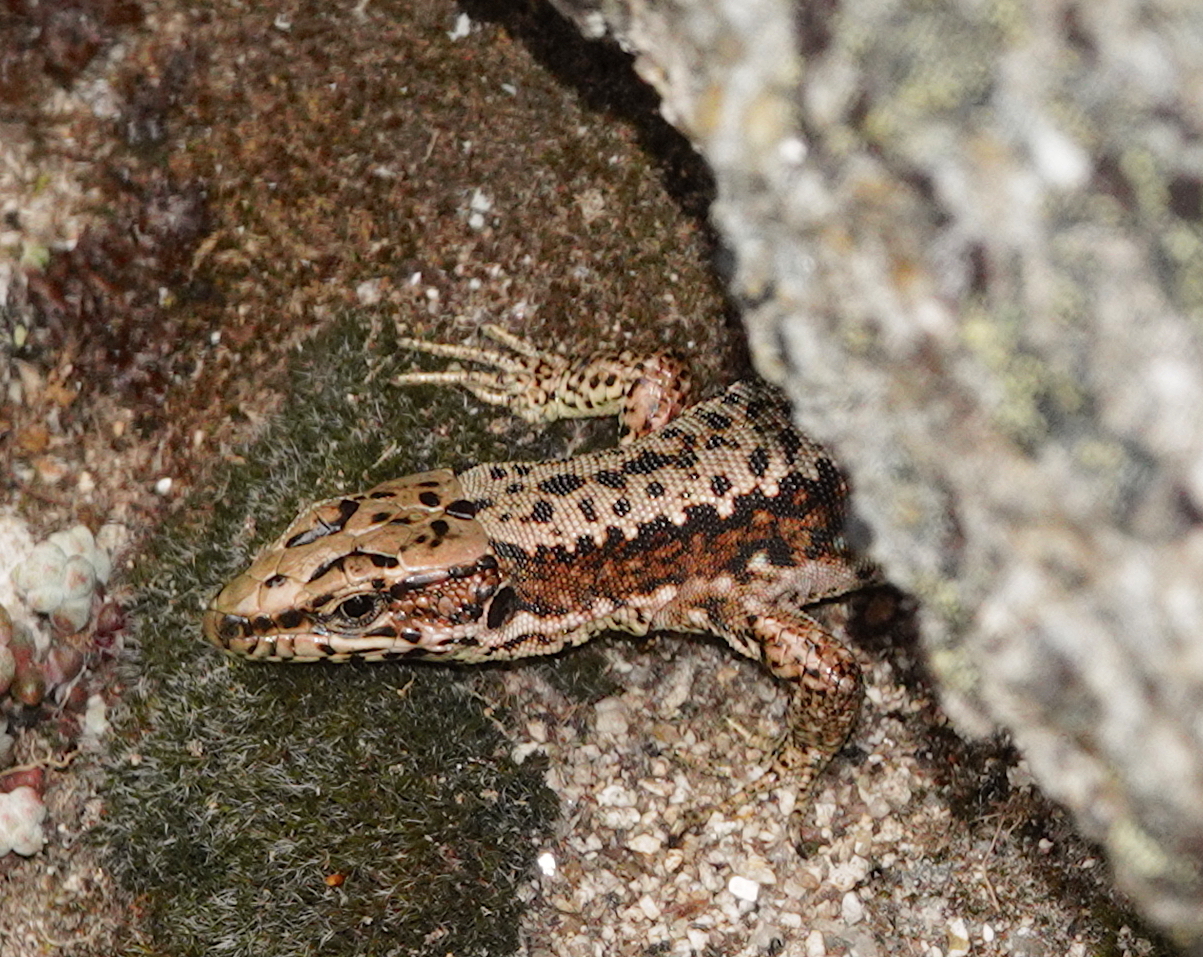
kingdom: Animalia
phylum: Chordata
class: Squamata
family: Lacertidae
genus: Iberolacerta
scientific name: Iberolacerta monticola
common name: Iberian mountain lizard
